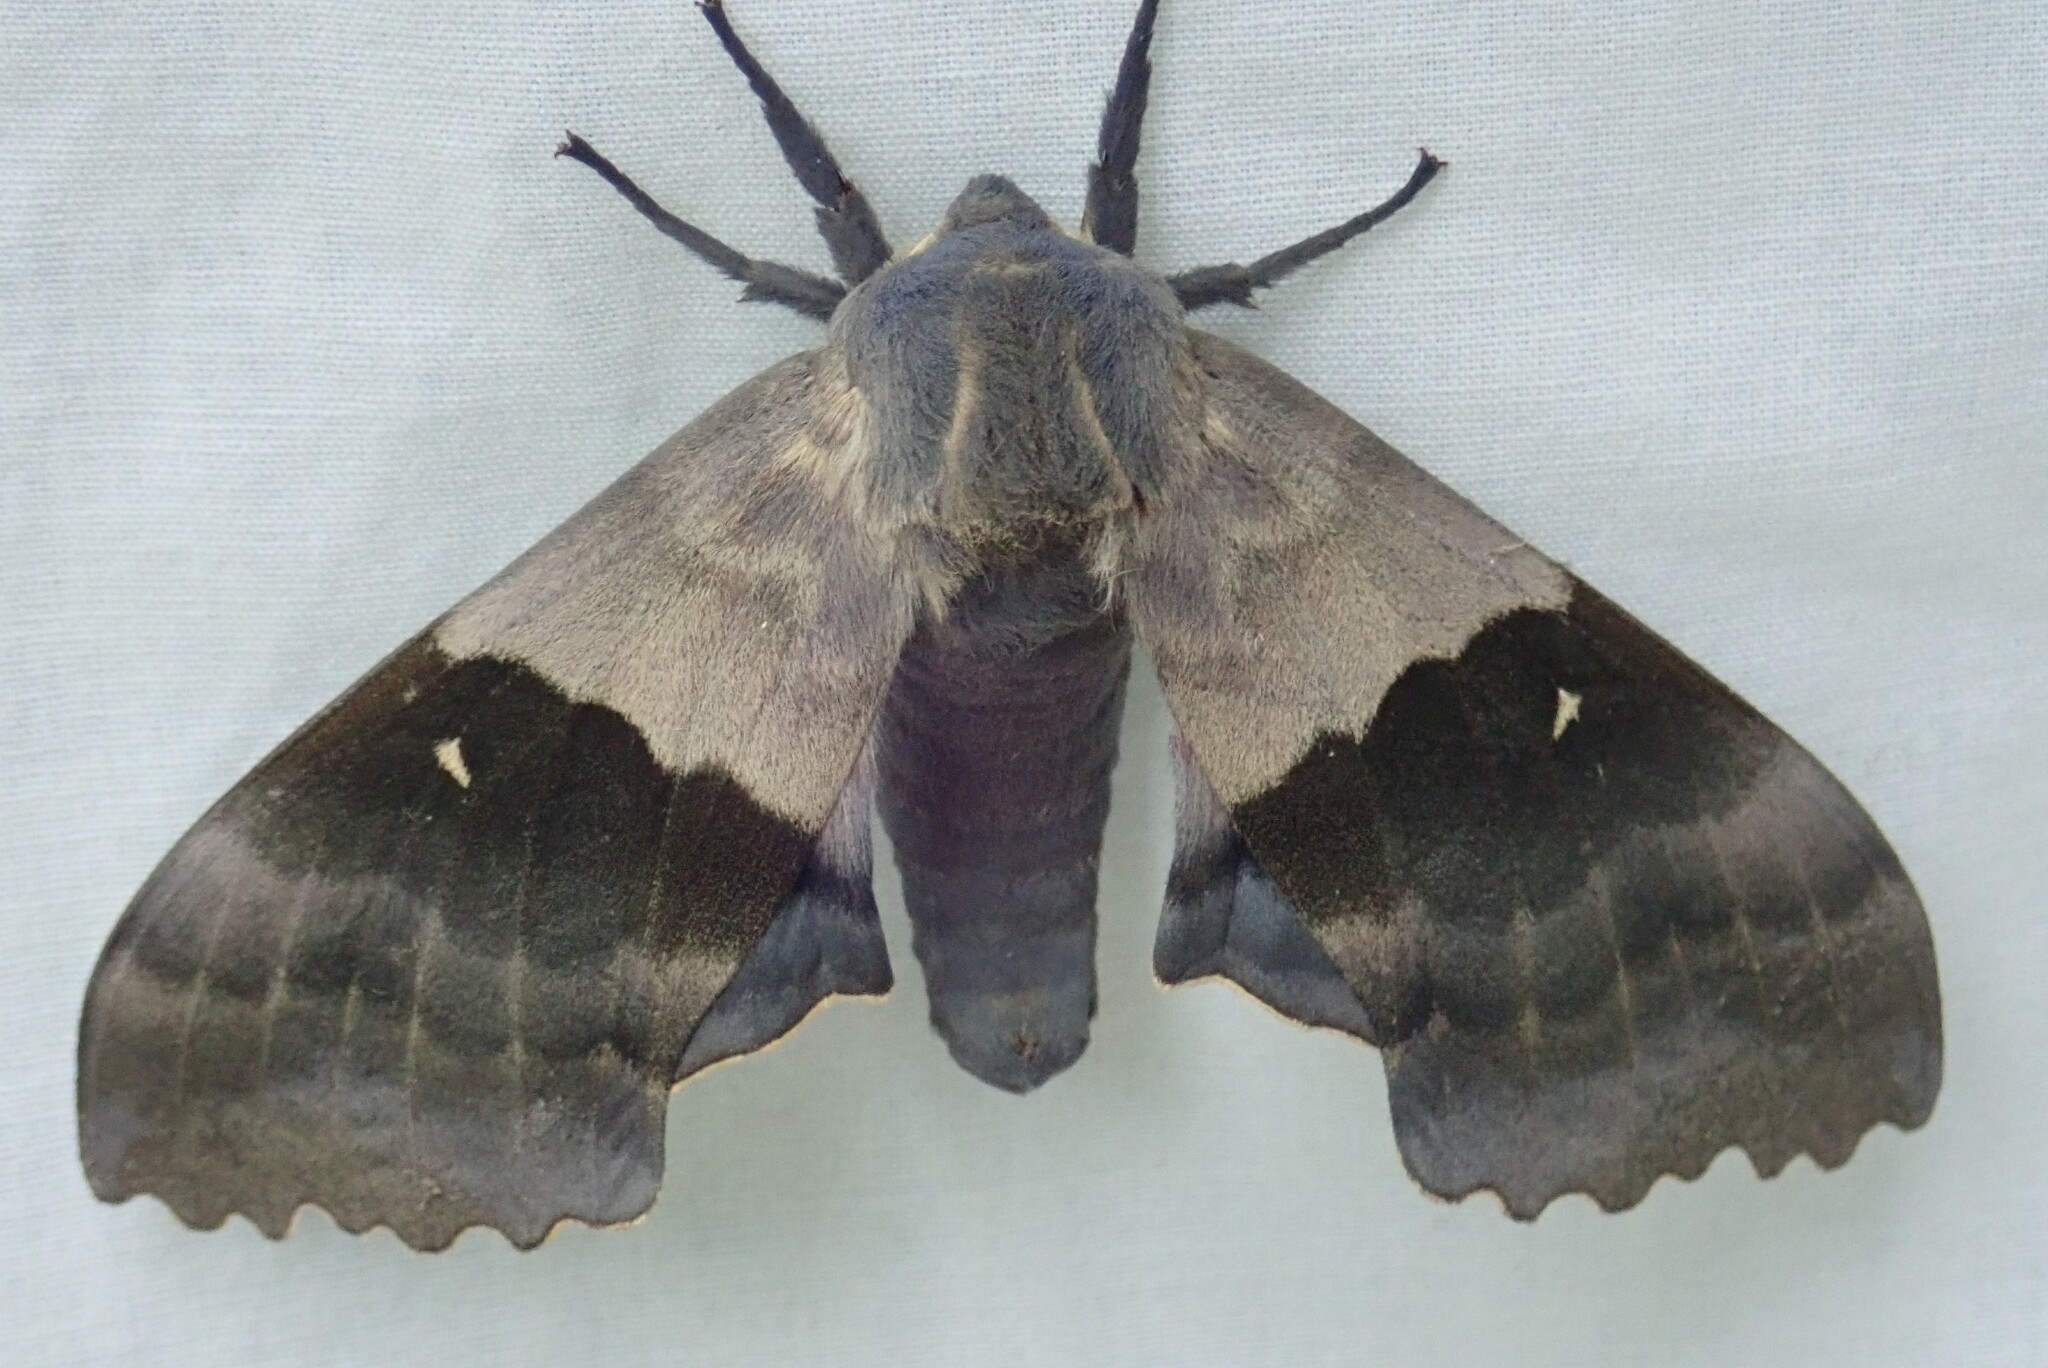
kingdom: Animalia
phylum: Arthropoda
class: Insecta
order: Lepidoptera
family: Sphingidae
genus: Pachysphinx
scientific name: Pachysphinx modesta
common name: Big poplar sphinx
